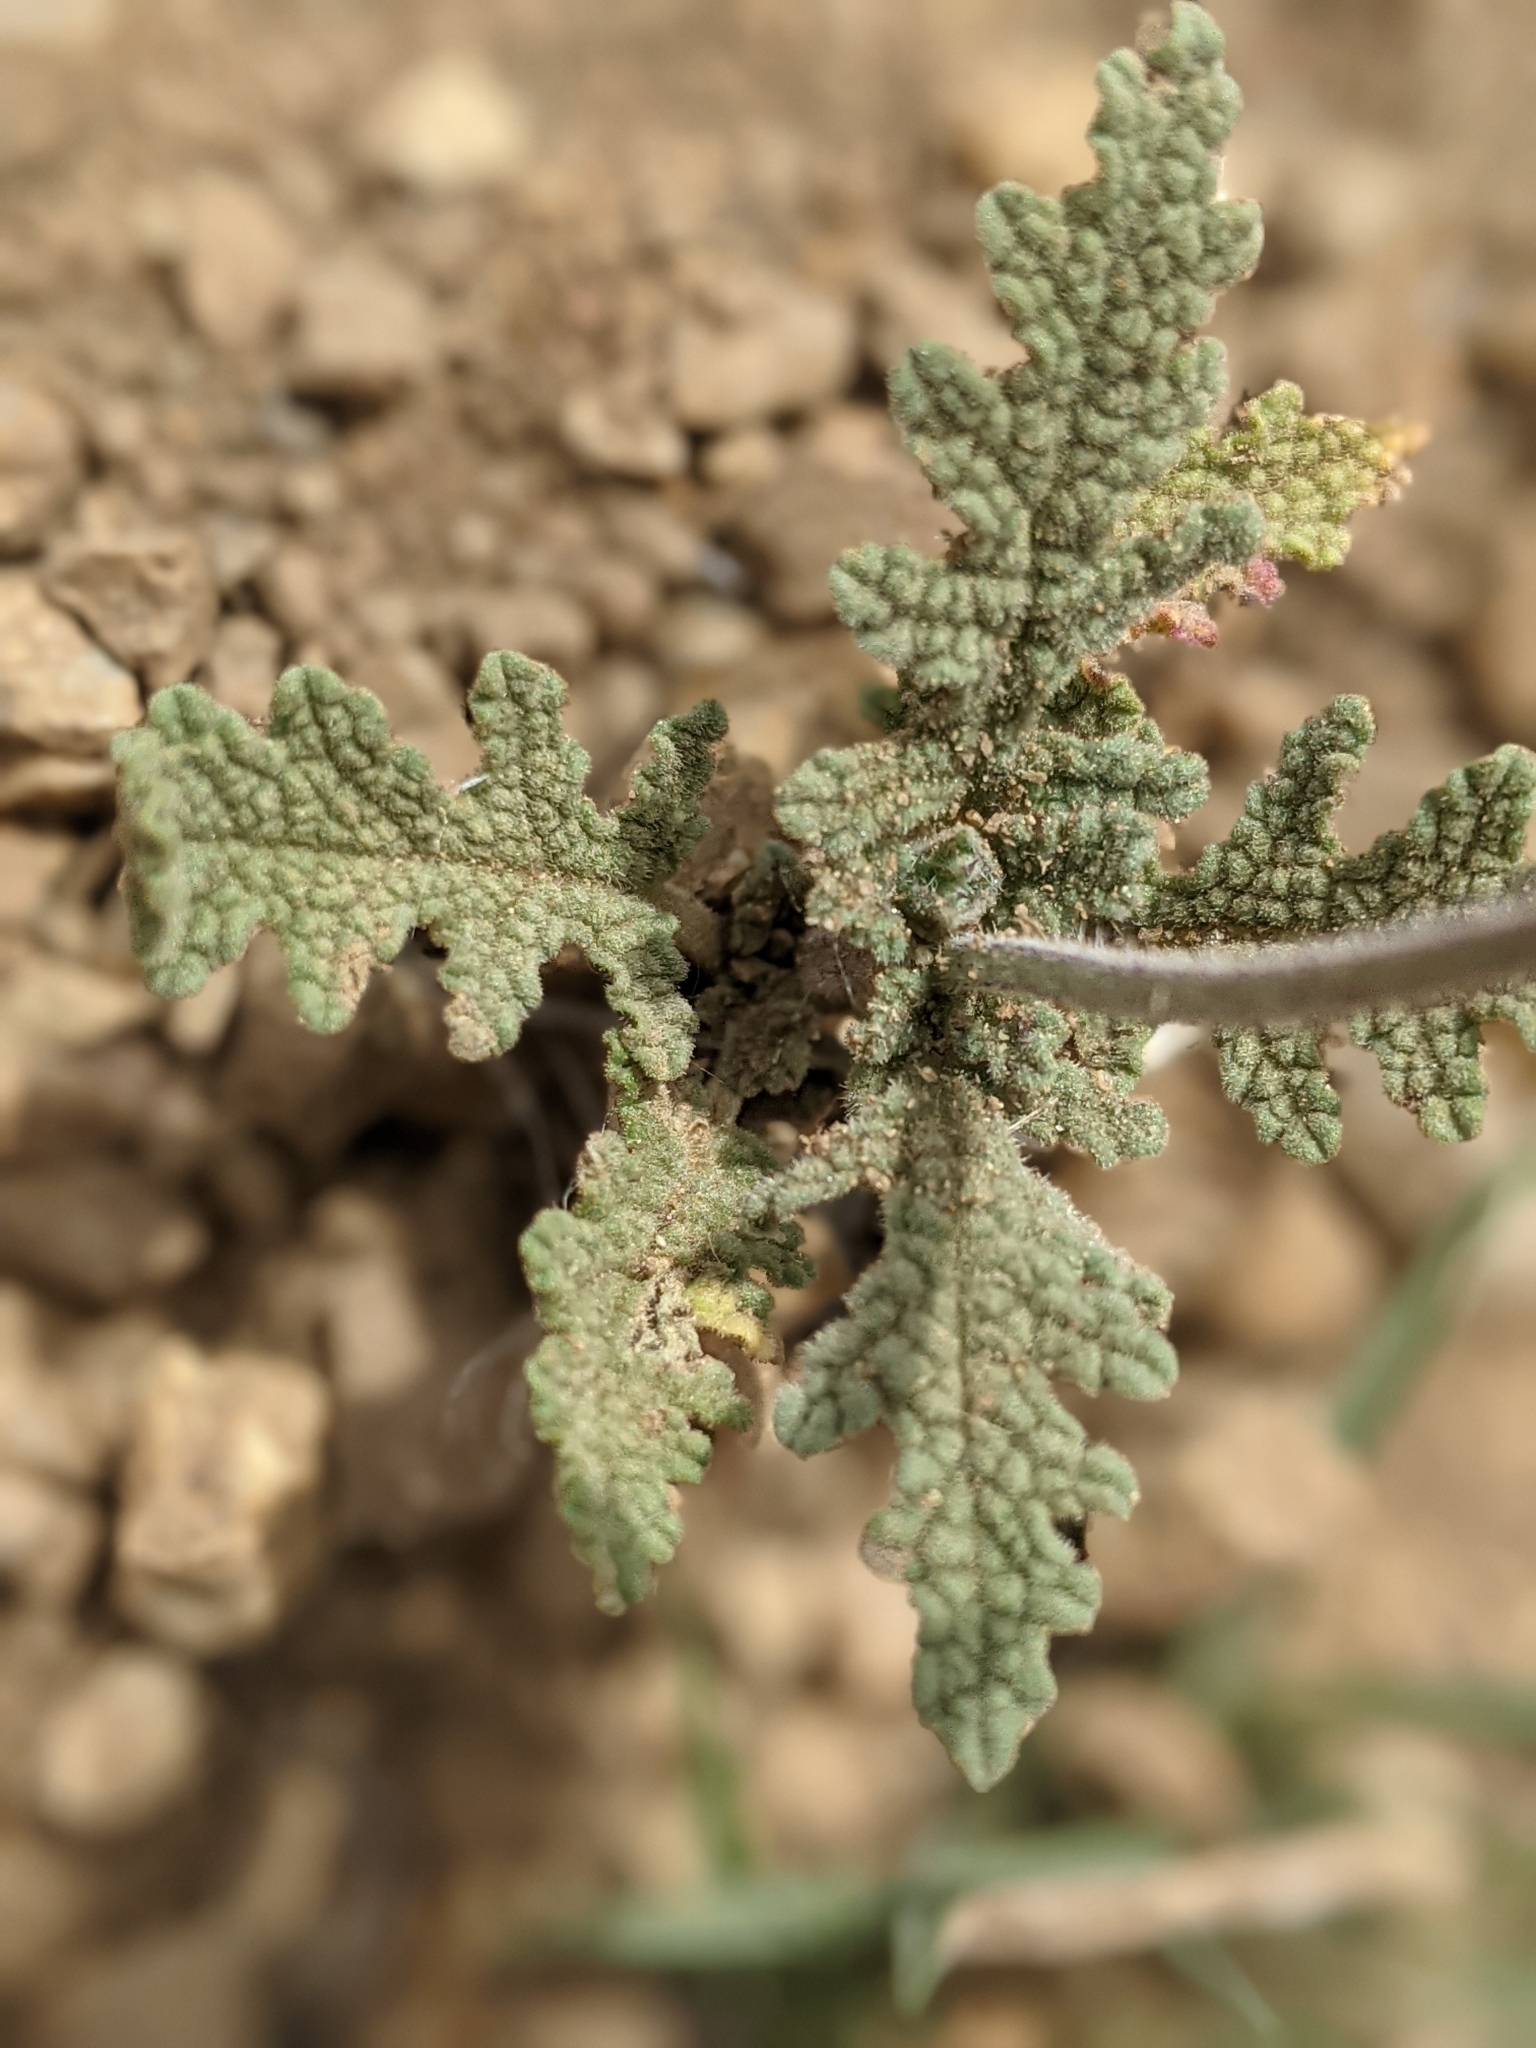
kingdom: Plantae
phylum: Tracheophyta
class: Magnoliopsida
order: Lamiales
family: Lamiaceae
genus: Salvia
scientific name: Salvia columbariae
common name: Chia
